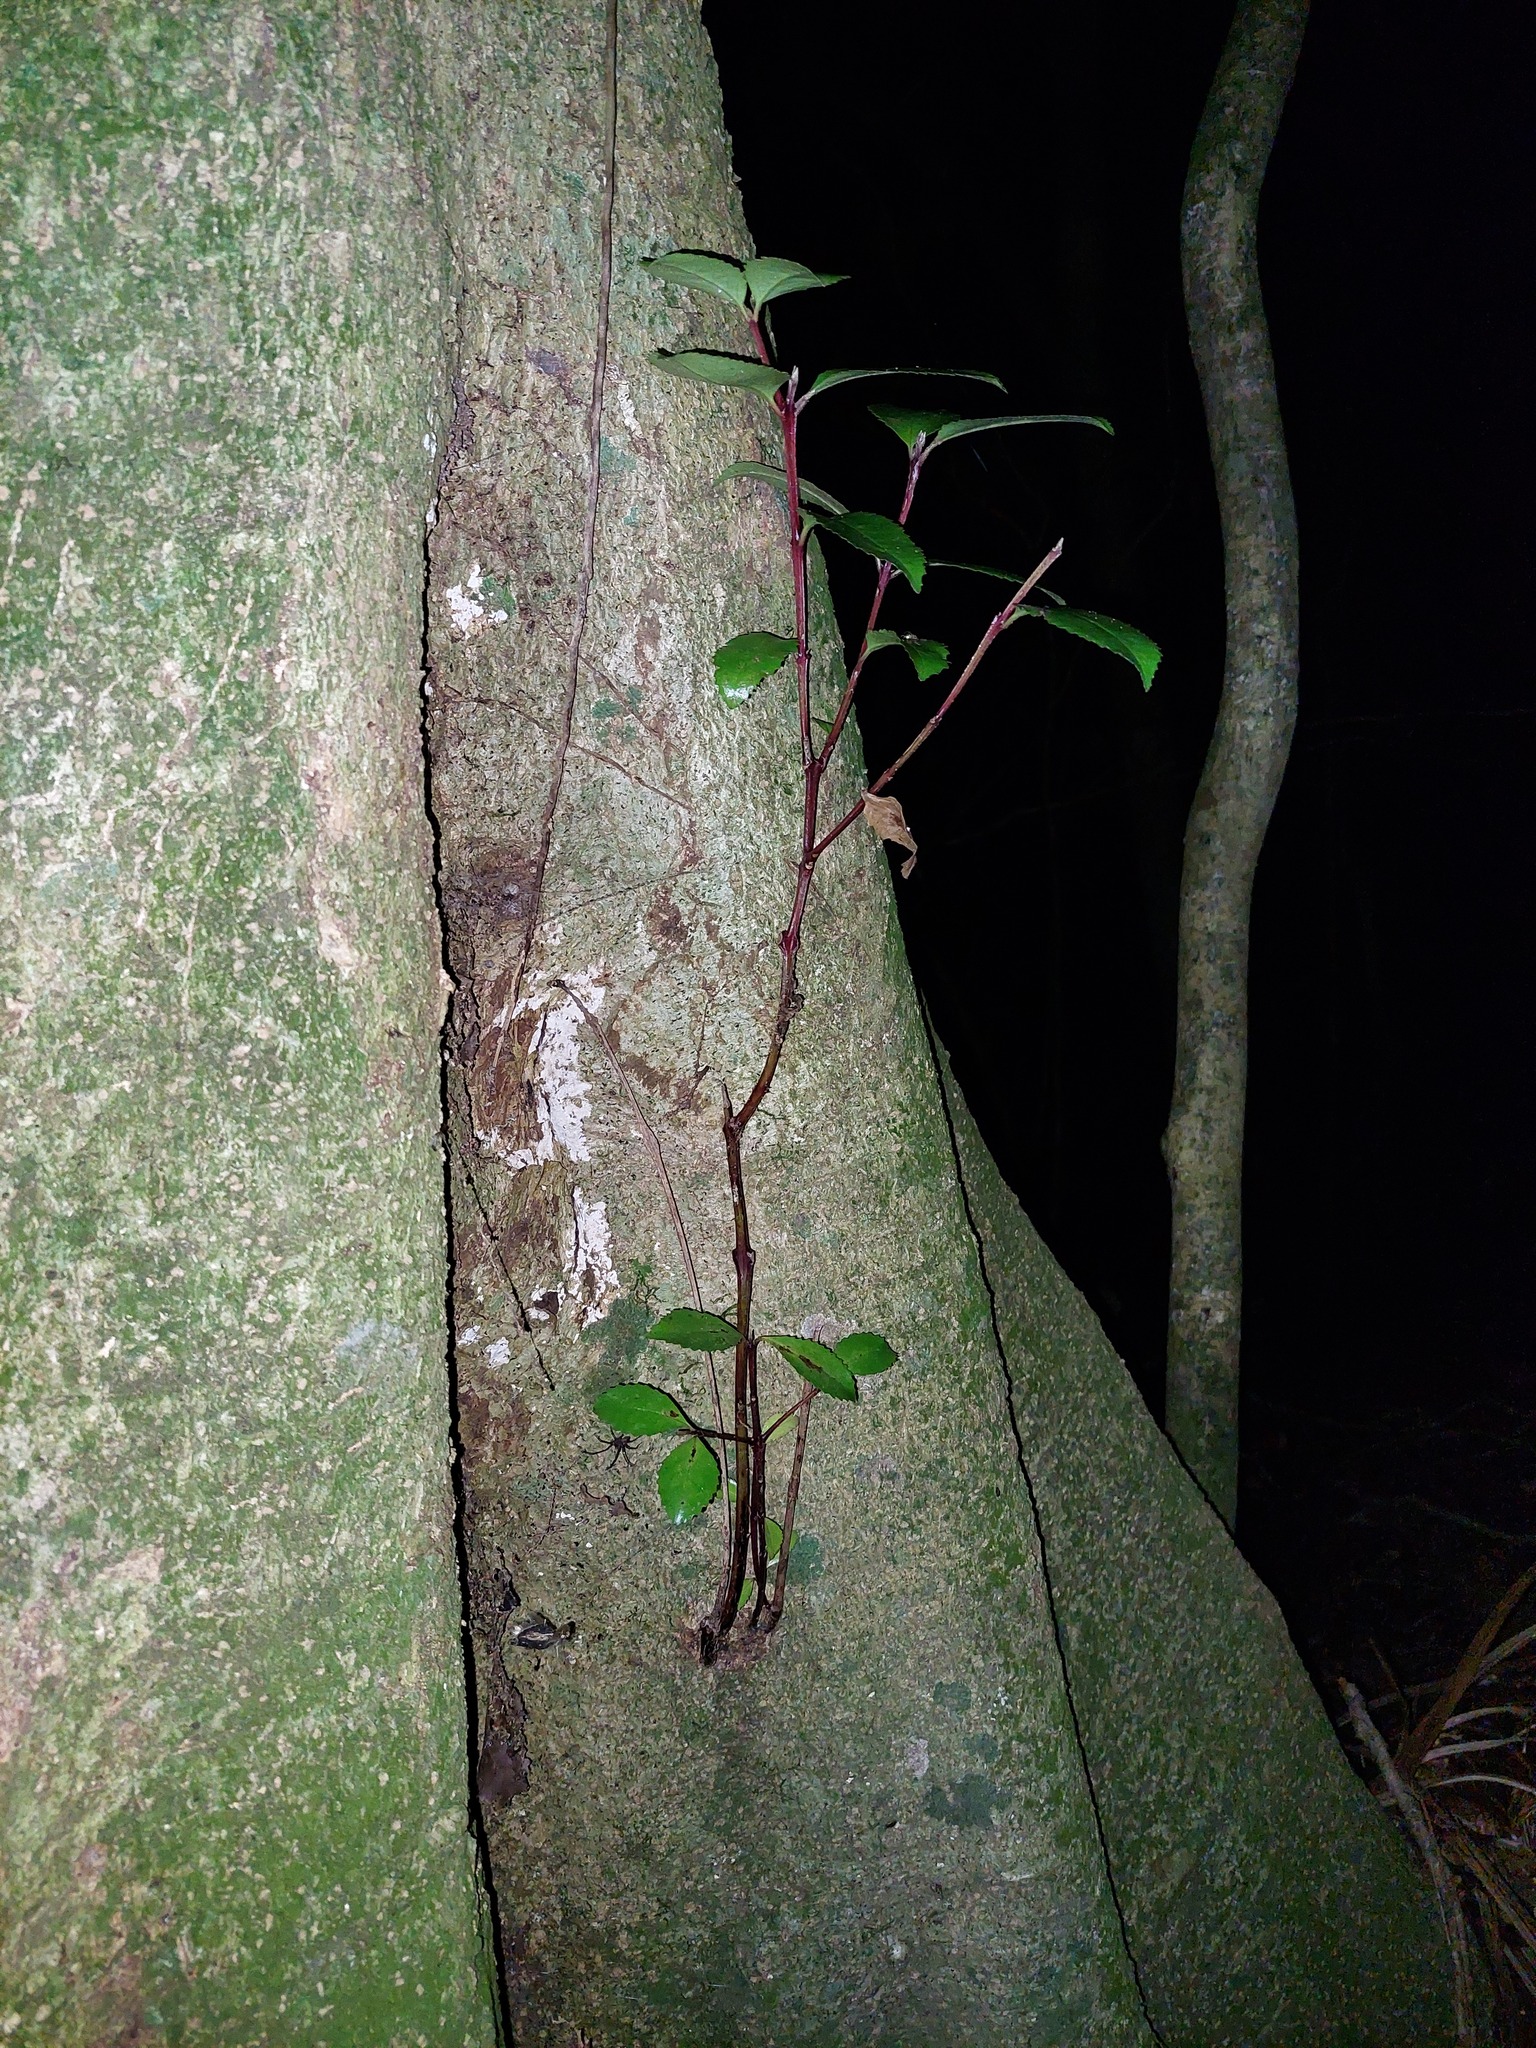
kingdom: Plantae
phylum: Tracheophyta
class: Magnoliopsida
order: Laurales
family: Atherospermataceae
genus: Laurelia
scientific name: Laurelia novae-zelandiae
